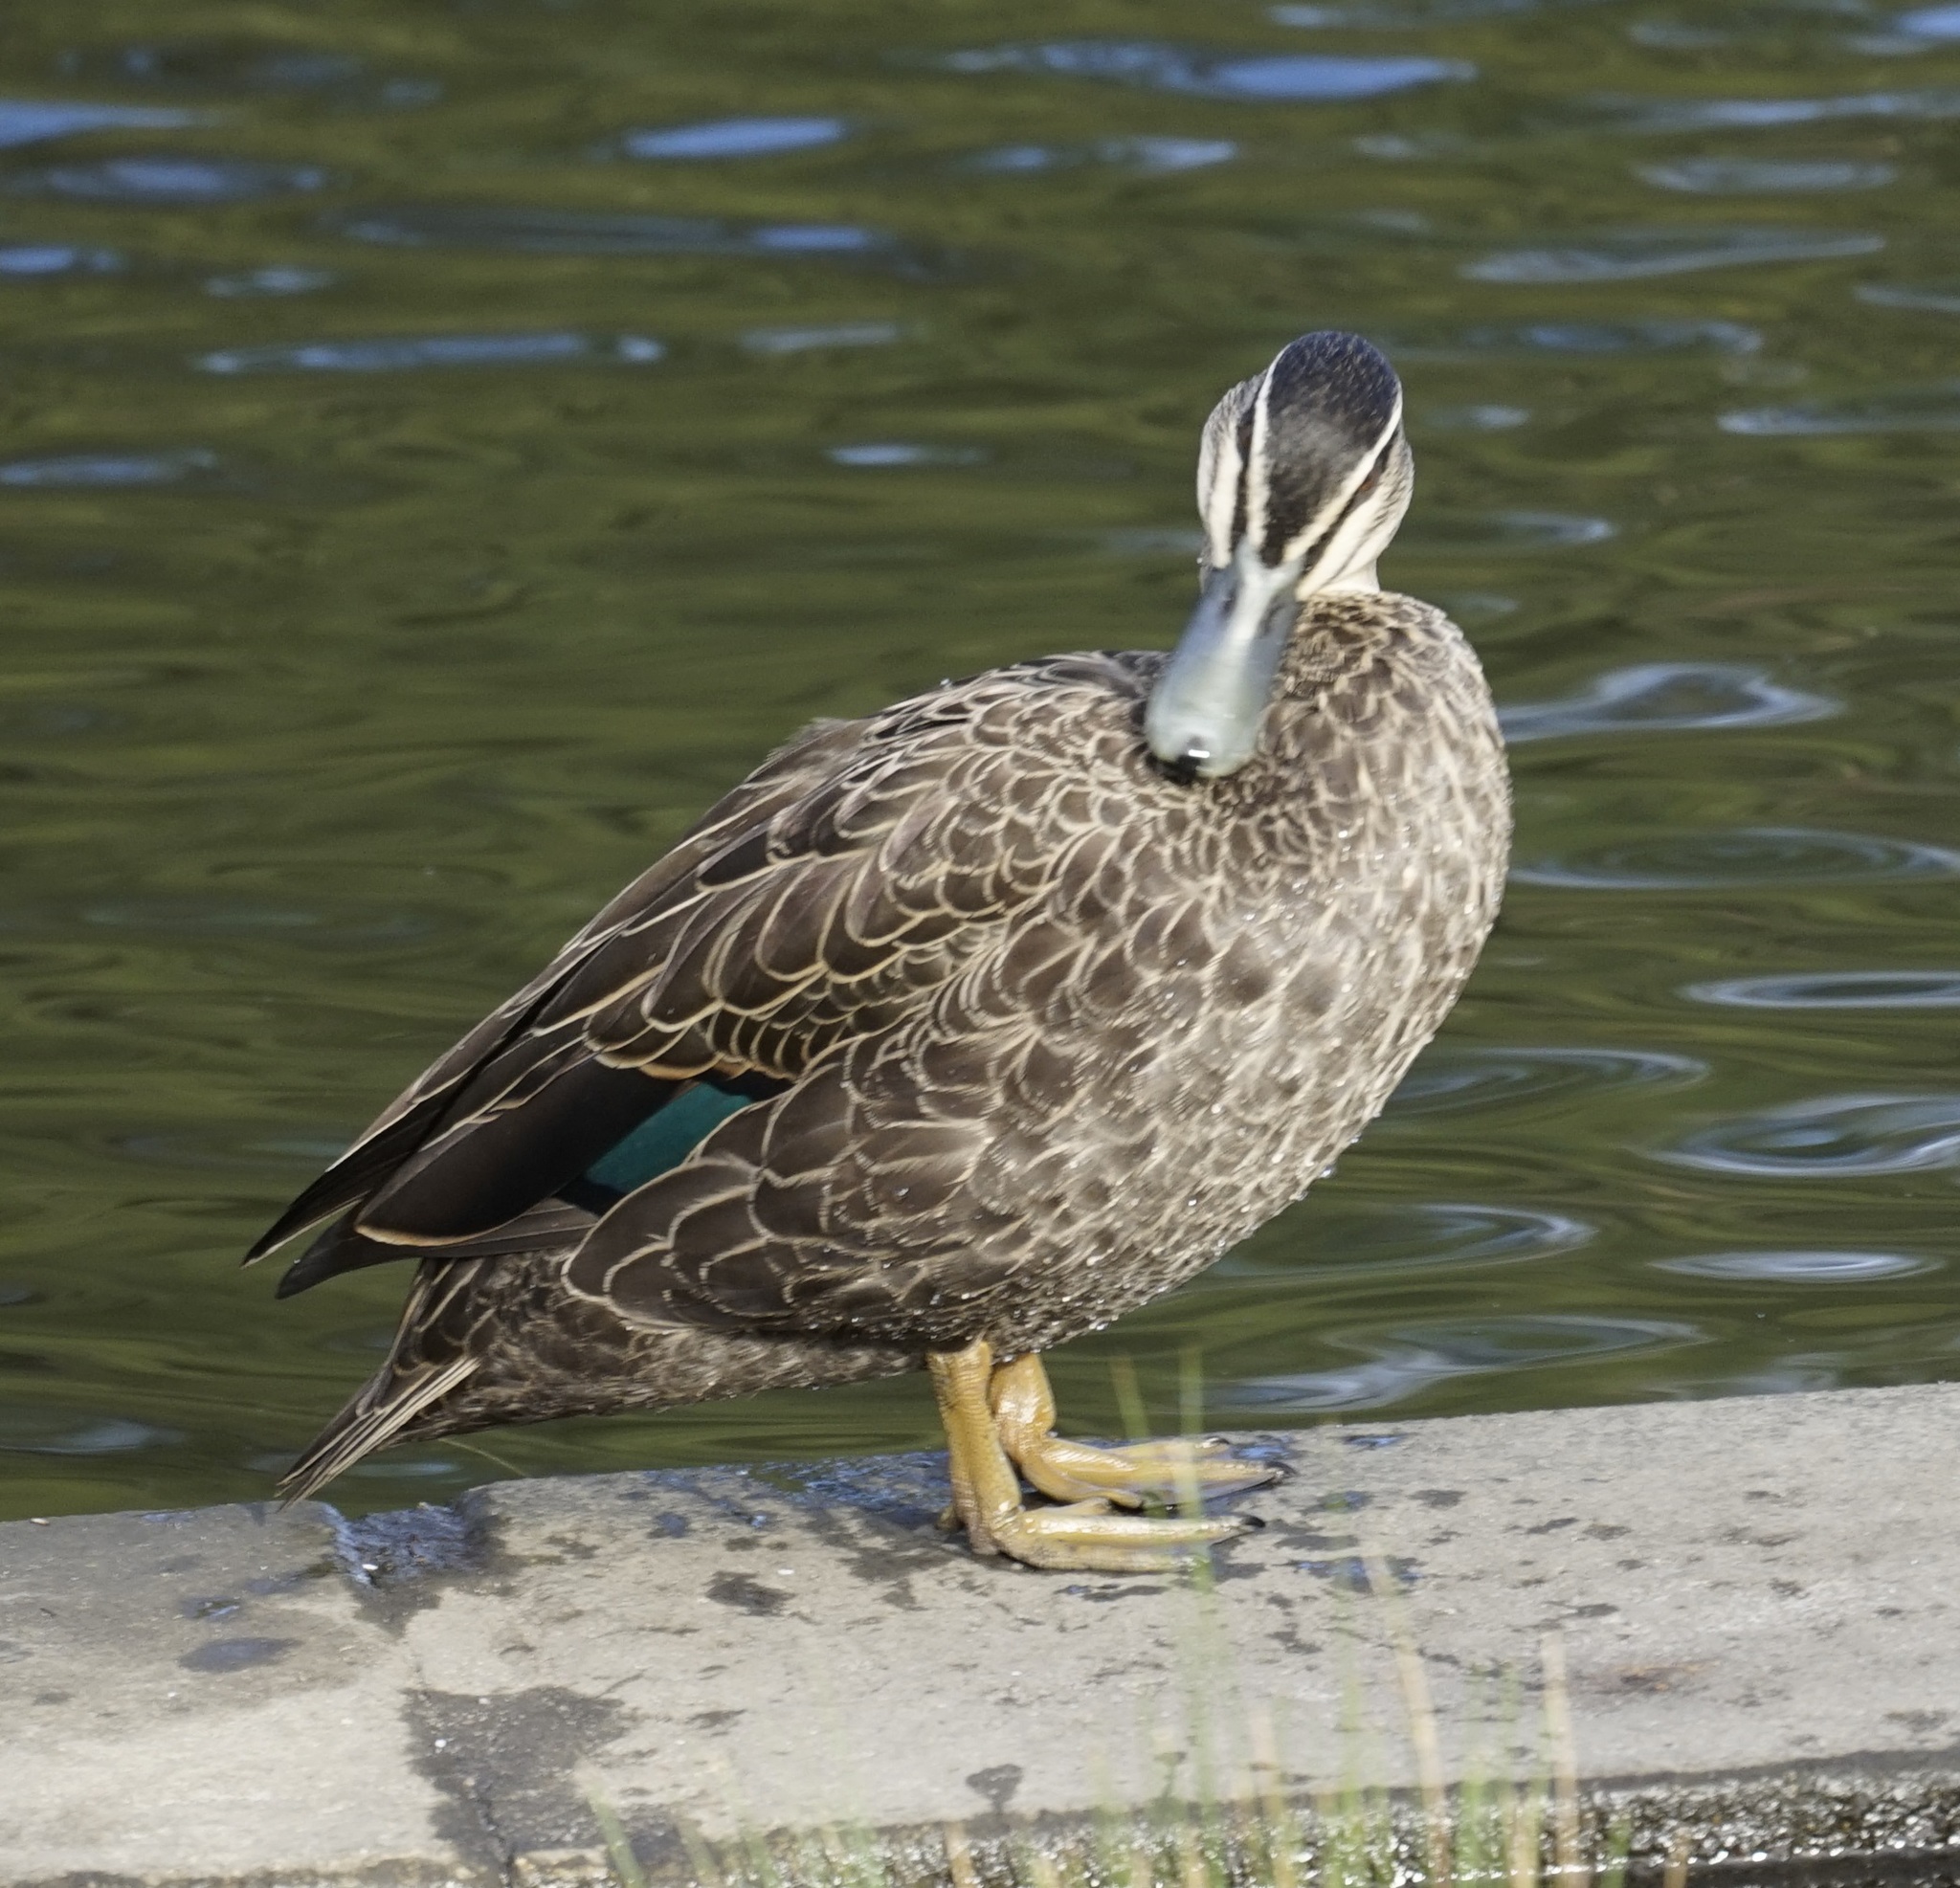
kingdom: Animalia
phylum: Chordata
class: Aves
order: Anseriformes
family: Anatidae
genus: Anas
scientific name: Anas superciliosa
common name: Pacific black duck
